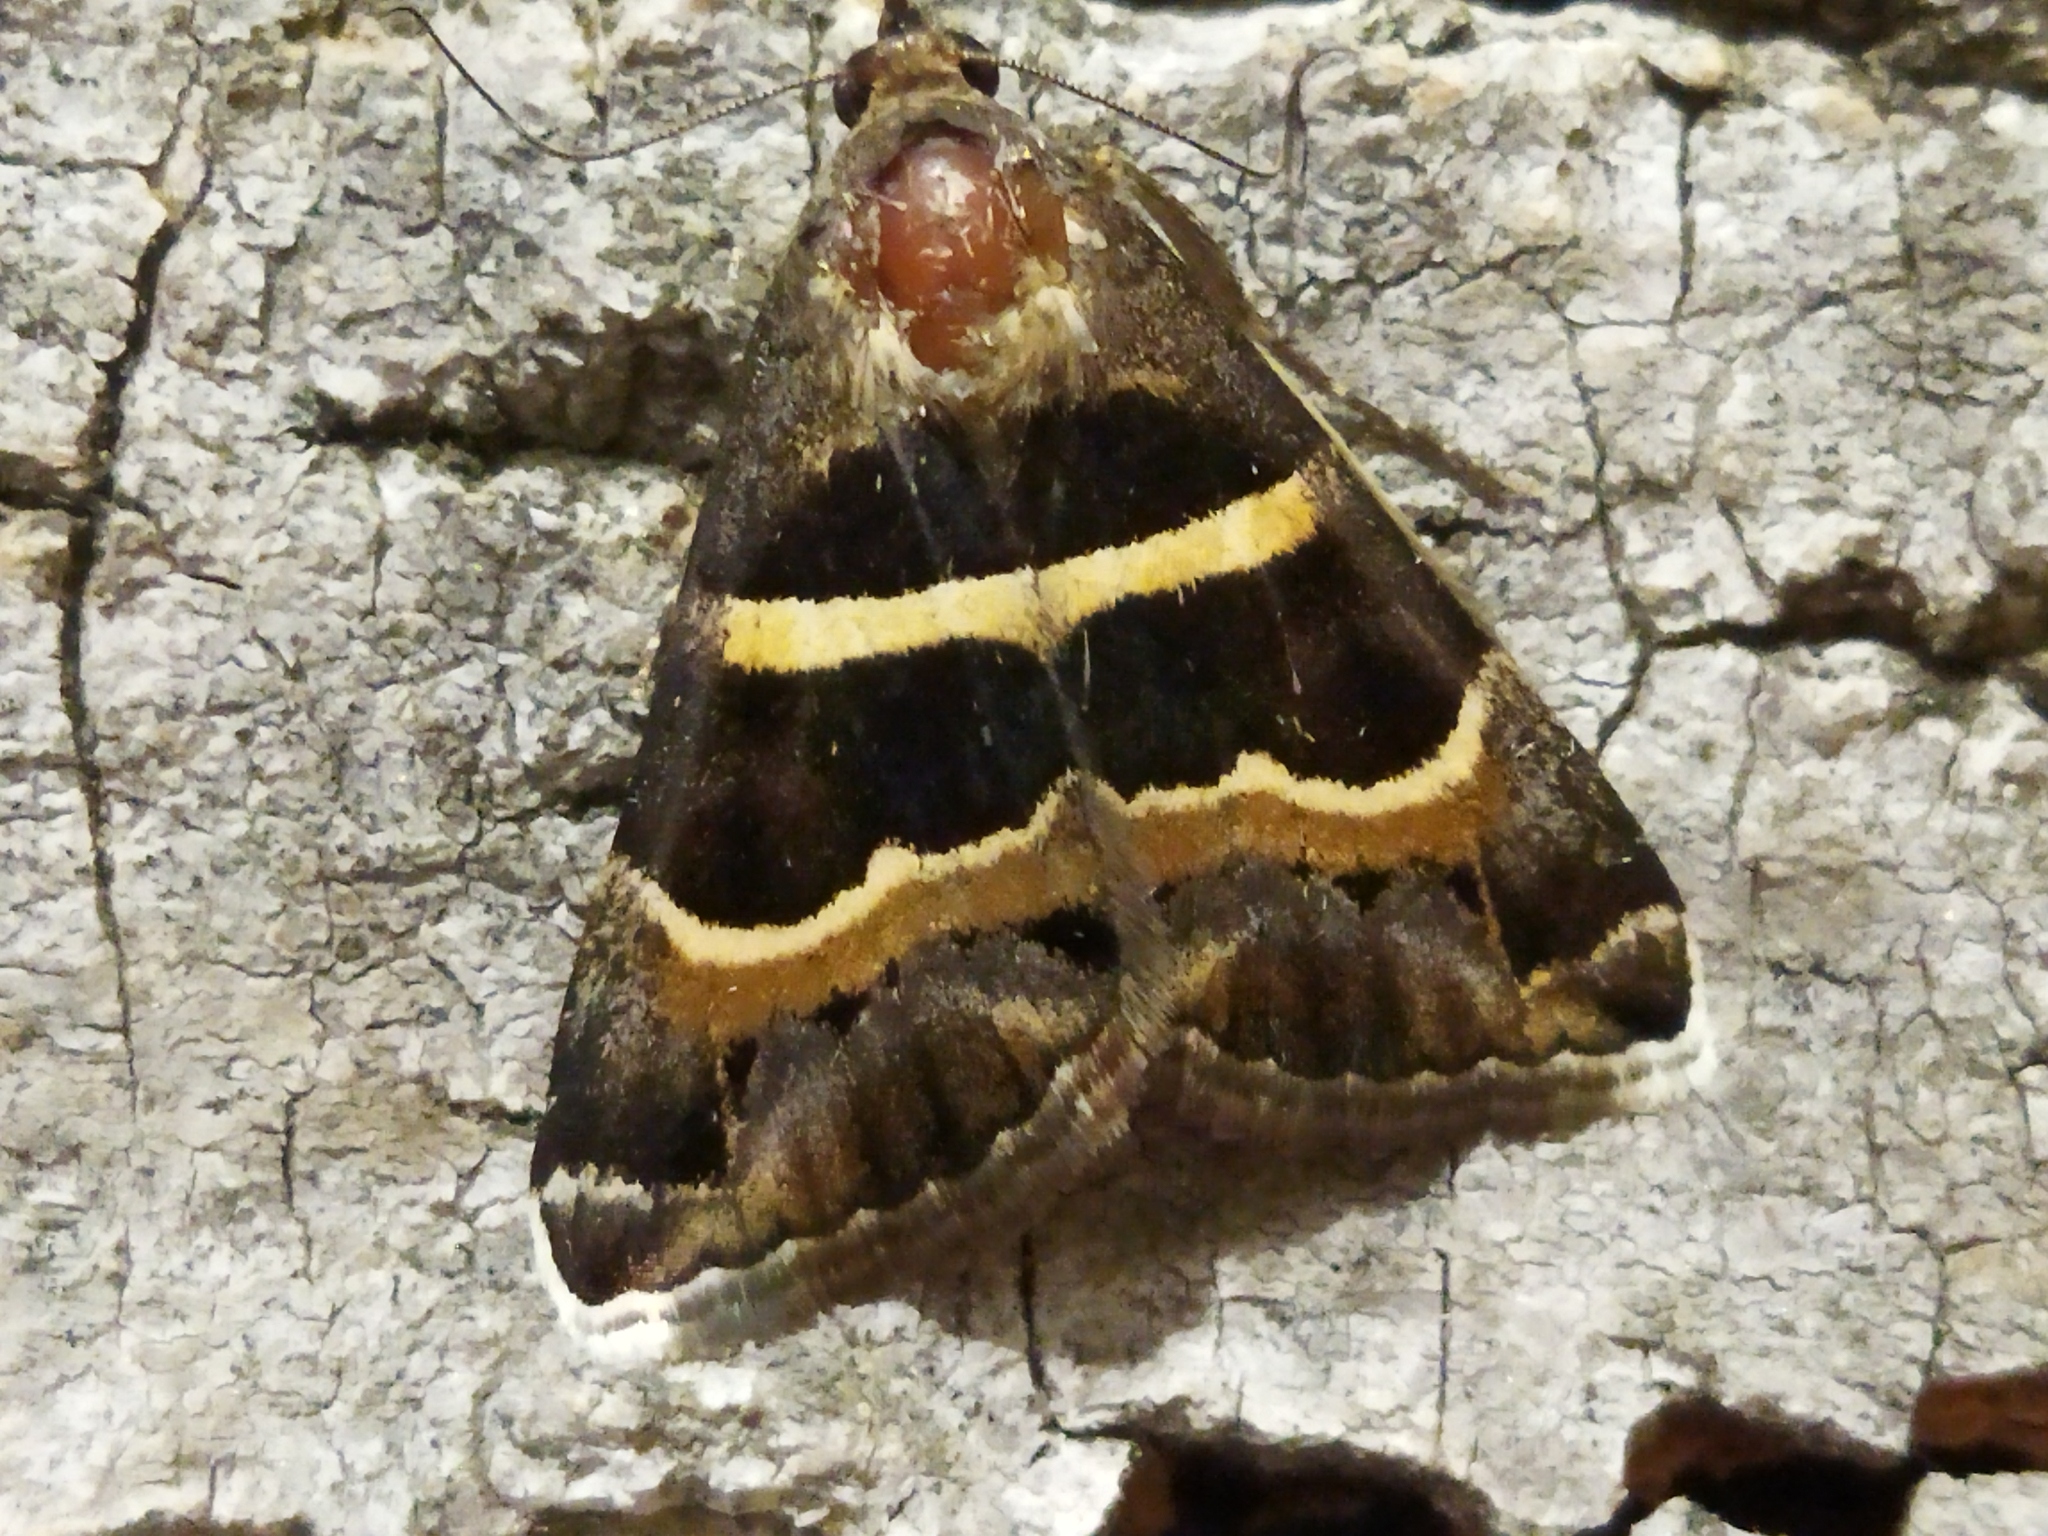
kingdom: Animalia
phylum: Arthropoda
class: Insecta
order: Lepidoptera
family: Erebidae
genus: Grammodes
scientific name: Grammodes stolida
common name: Geometrician
